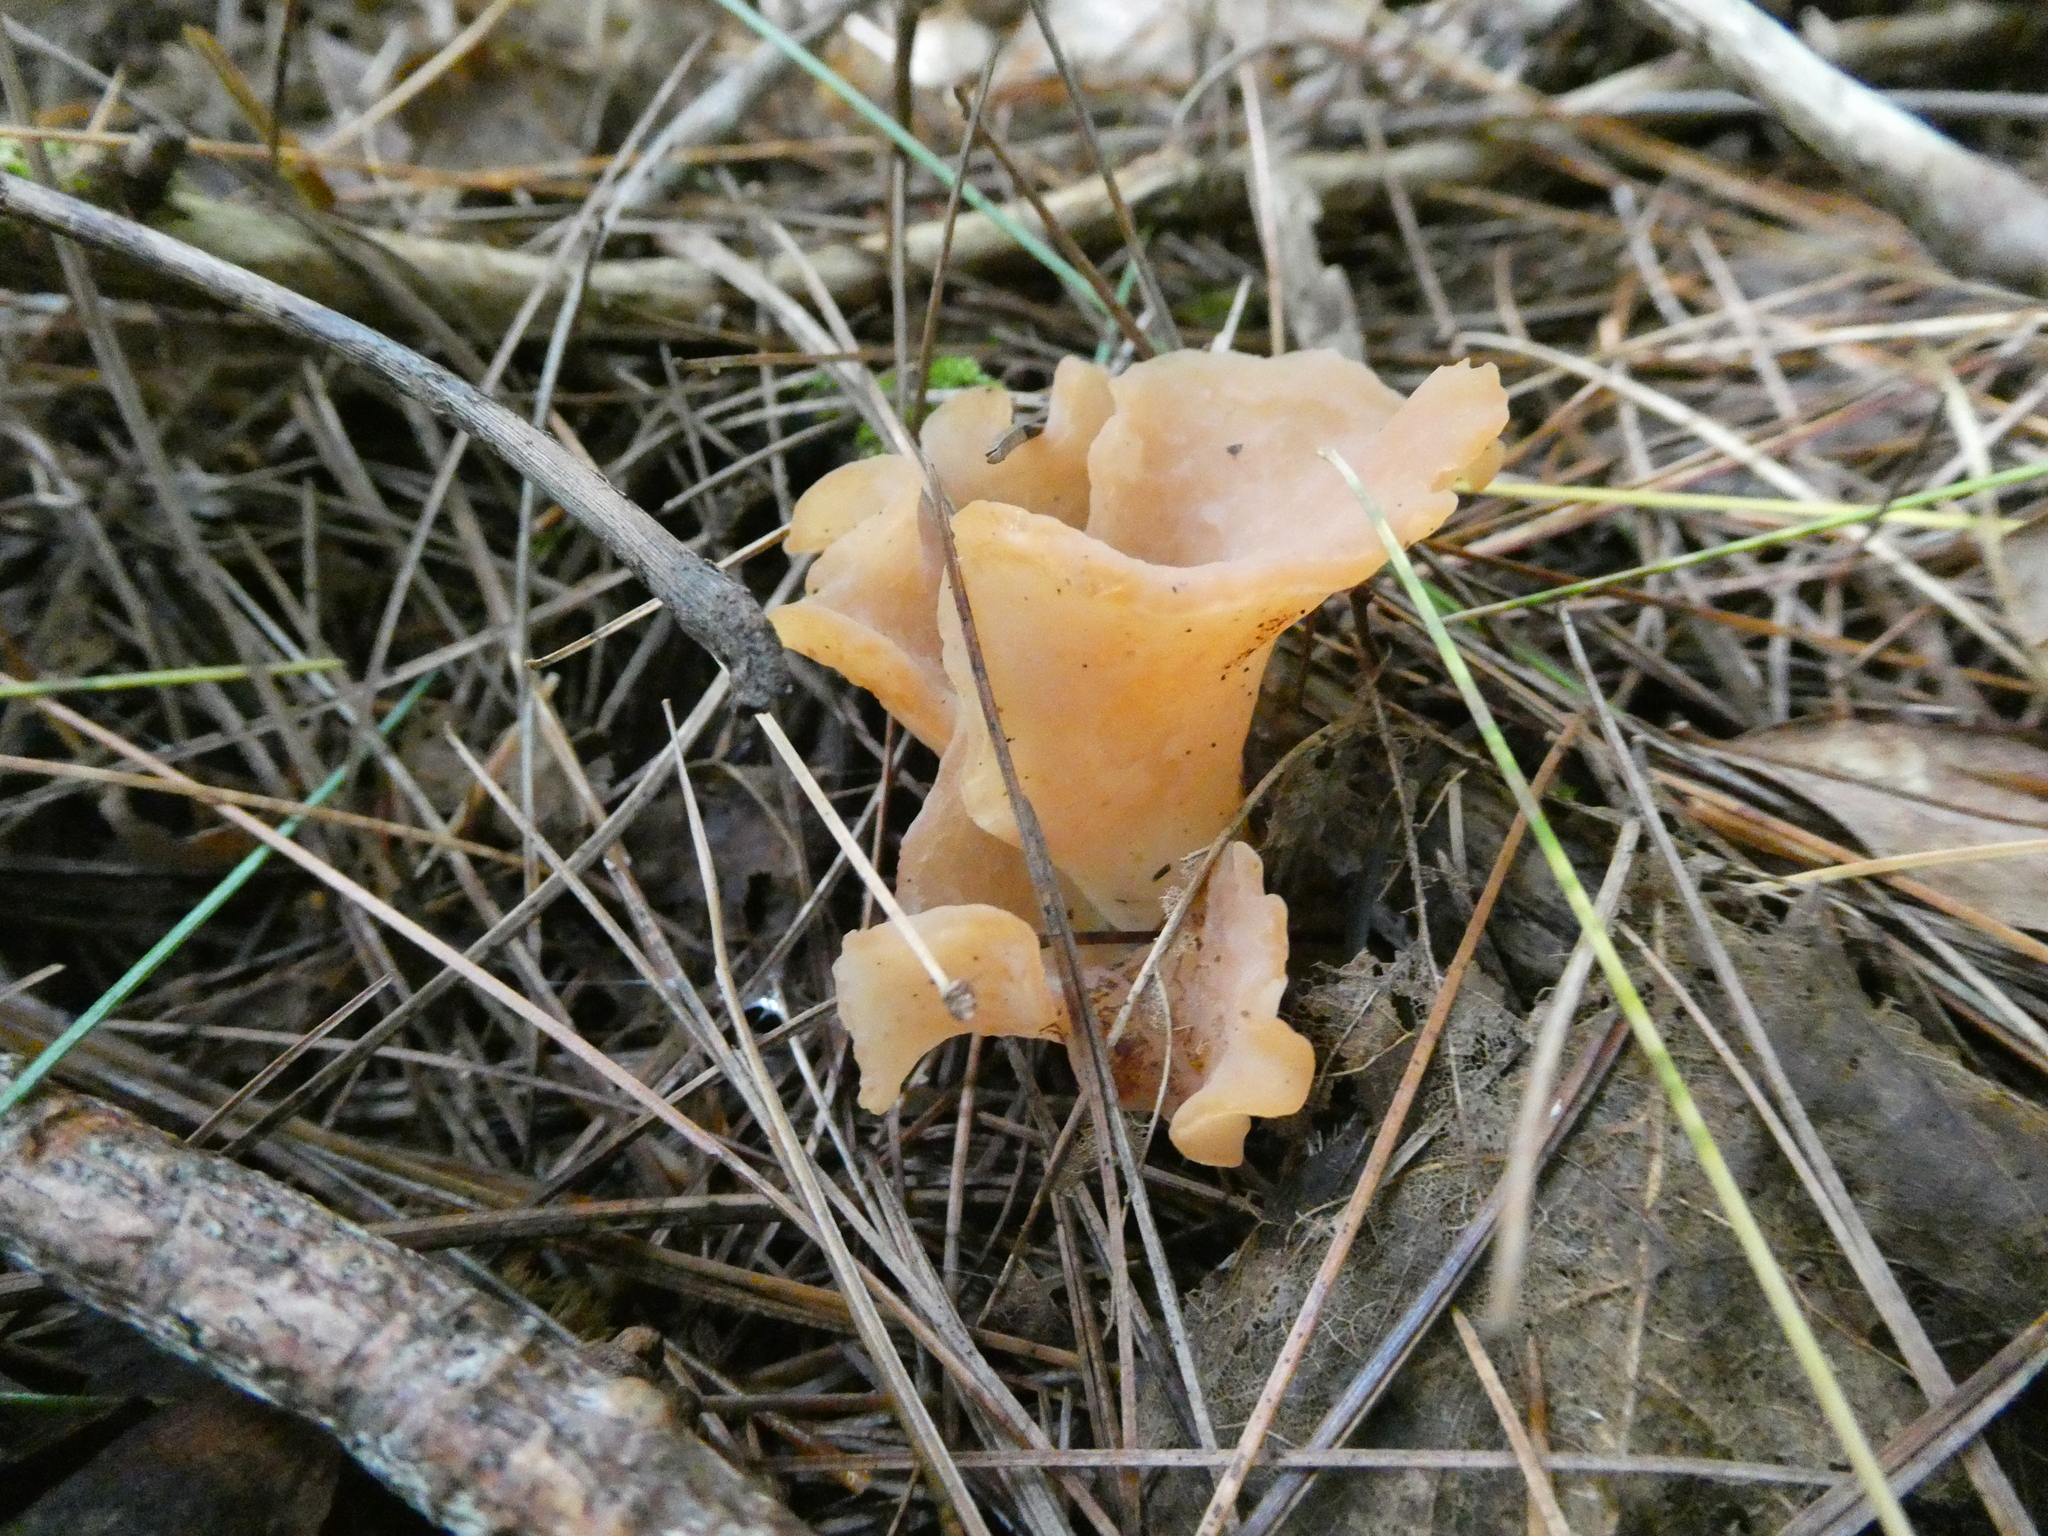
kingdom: Fungi
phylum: Basidiomycota
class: Agaricomycetes
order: Auriculariales
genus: Guepinia
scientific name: Guepinia helvelloides
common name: Salmon salad
